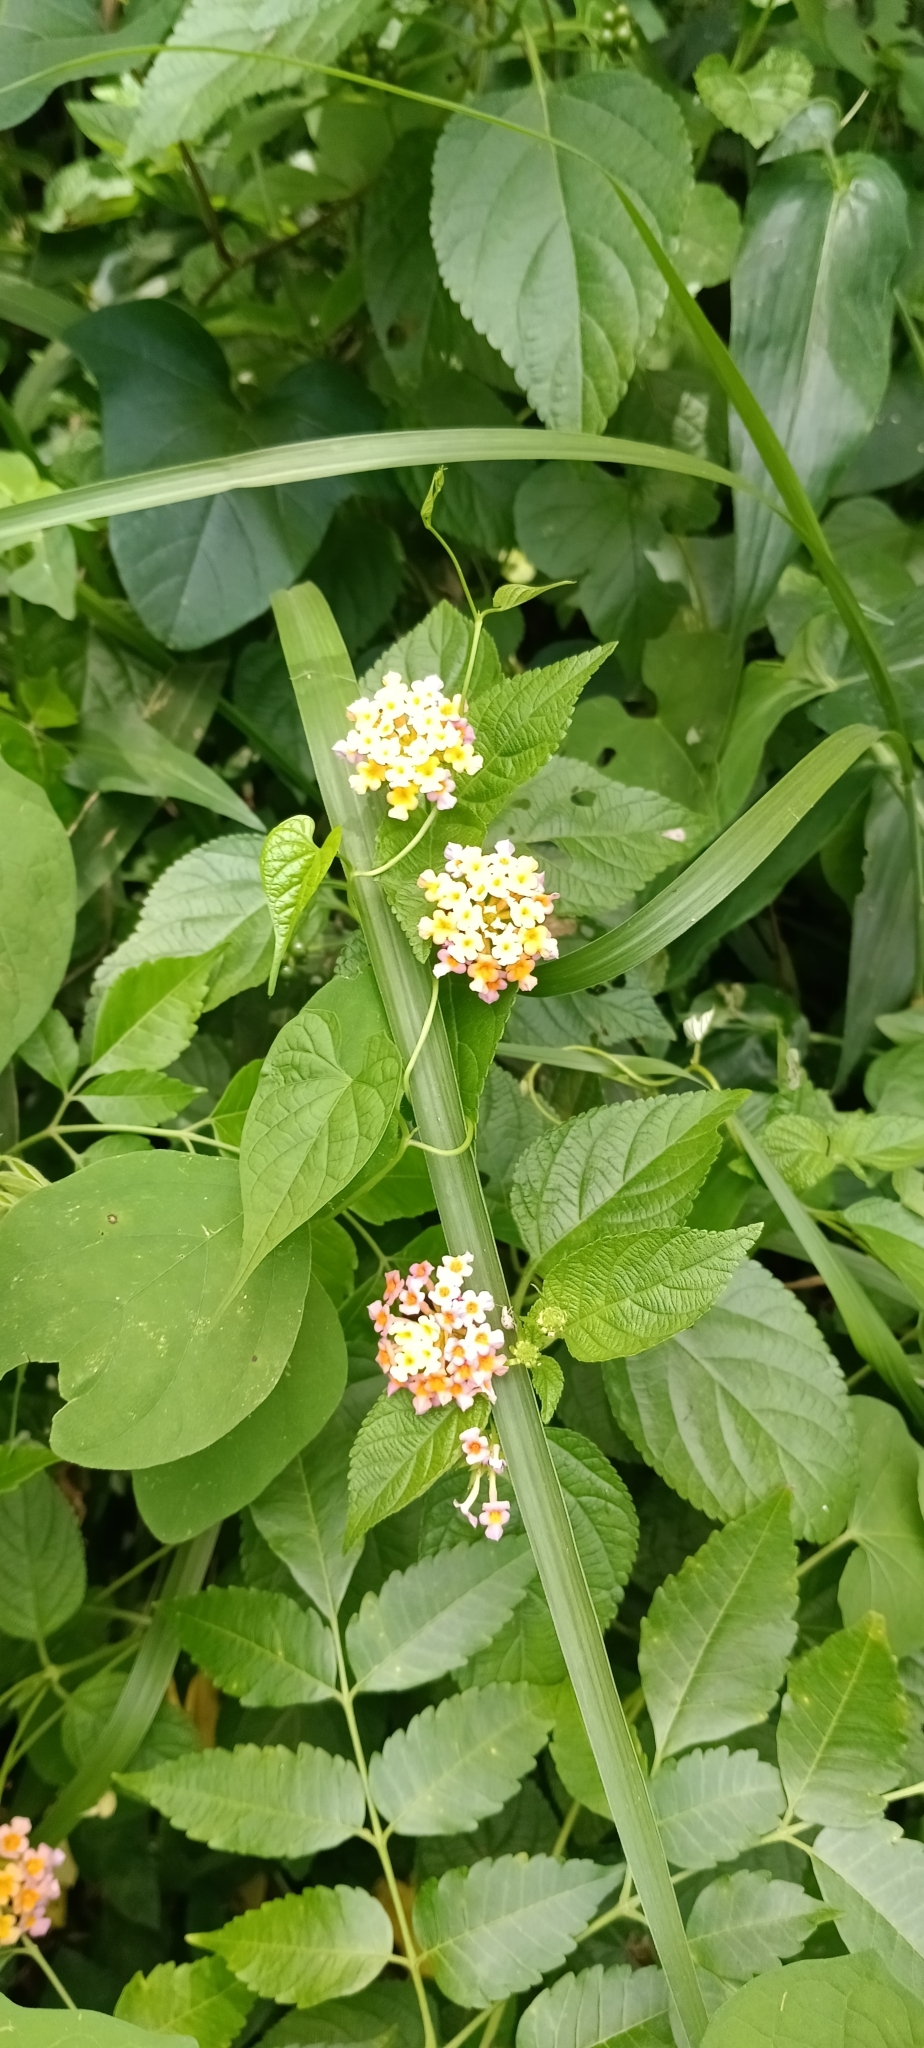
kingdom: Plantae
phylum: Tracheophyta
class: Magnoliopsida
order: Lamiales
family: Verbenaceae
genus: Lantana
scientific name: Lantana camara
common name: Lantana
